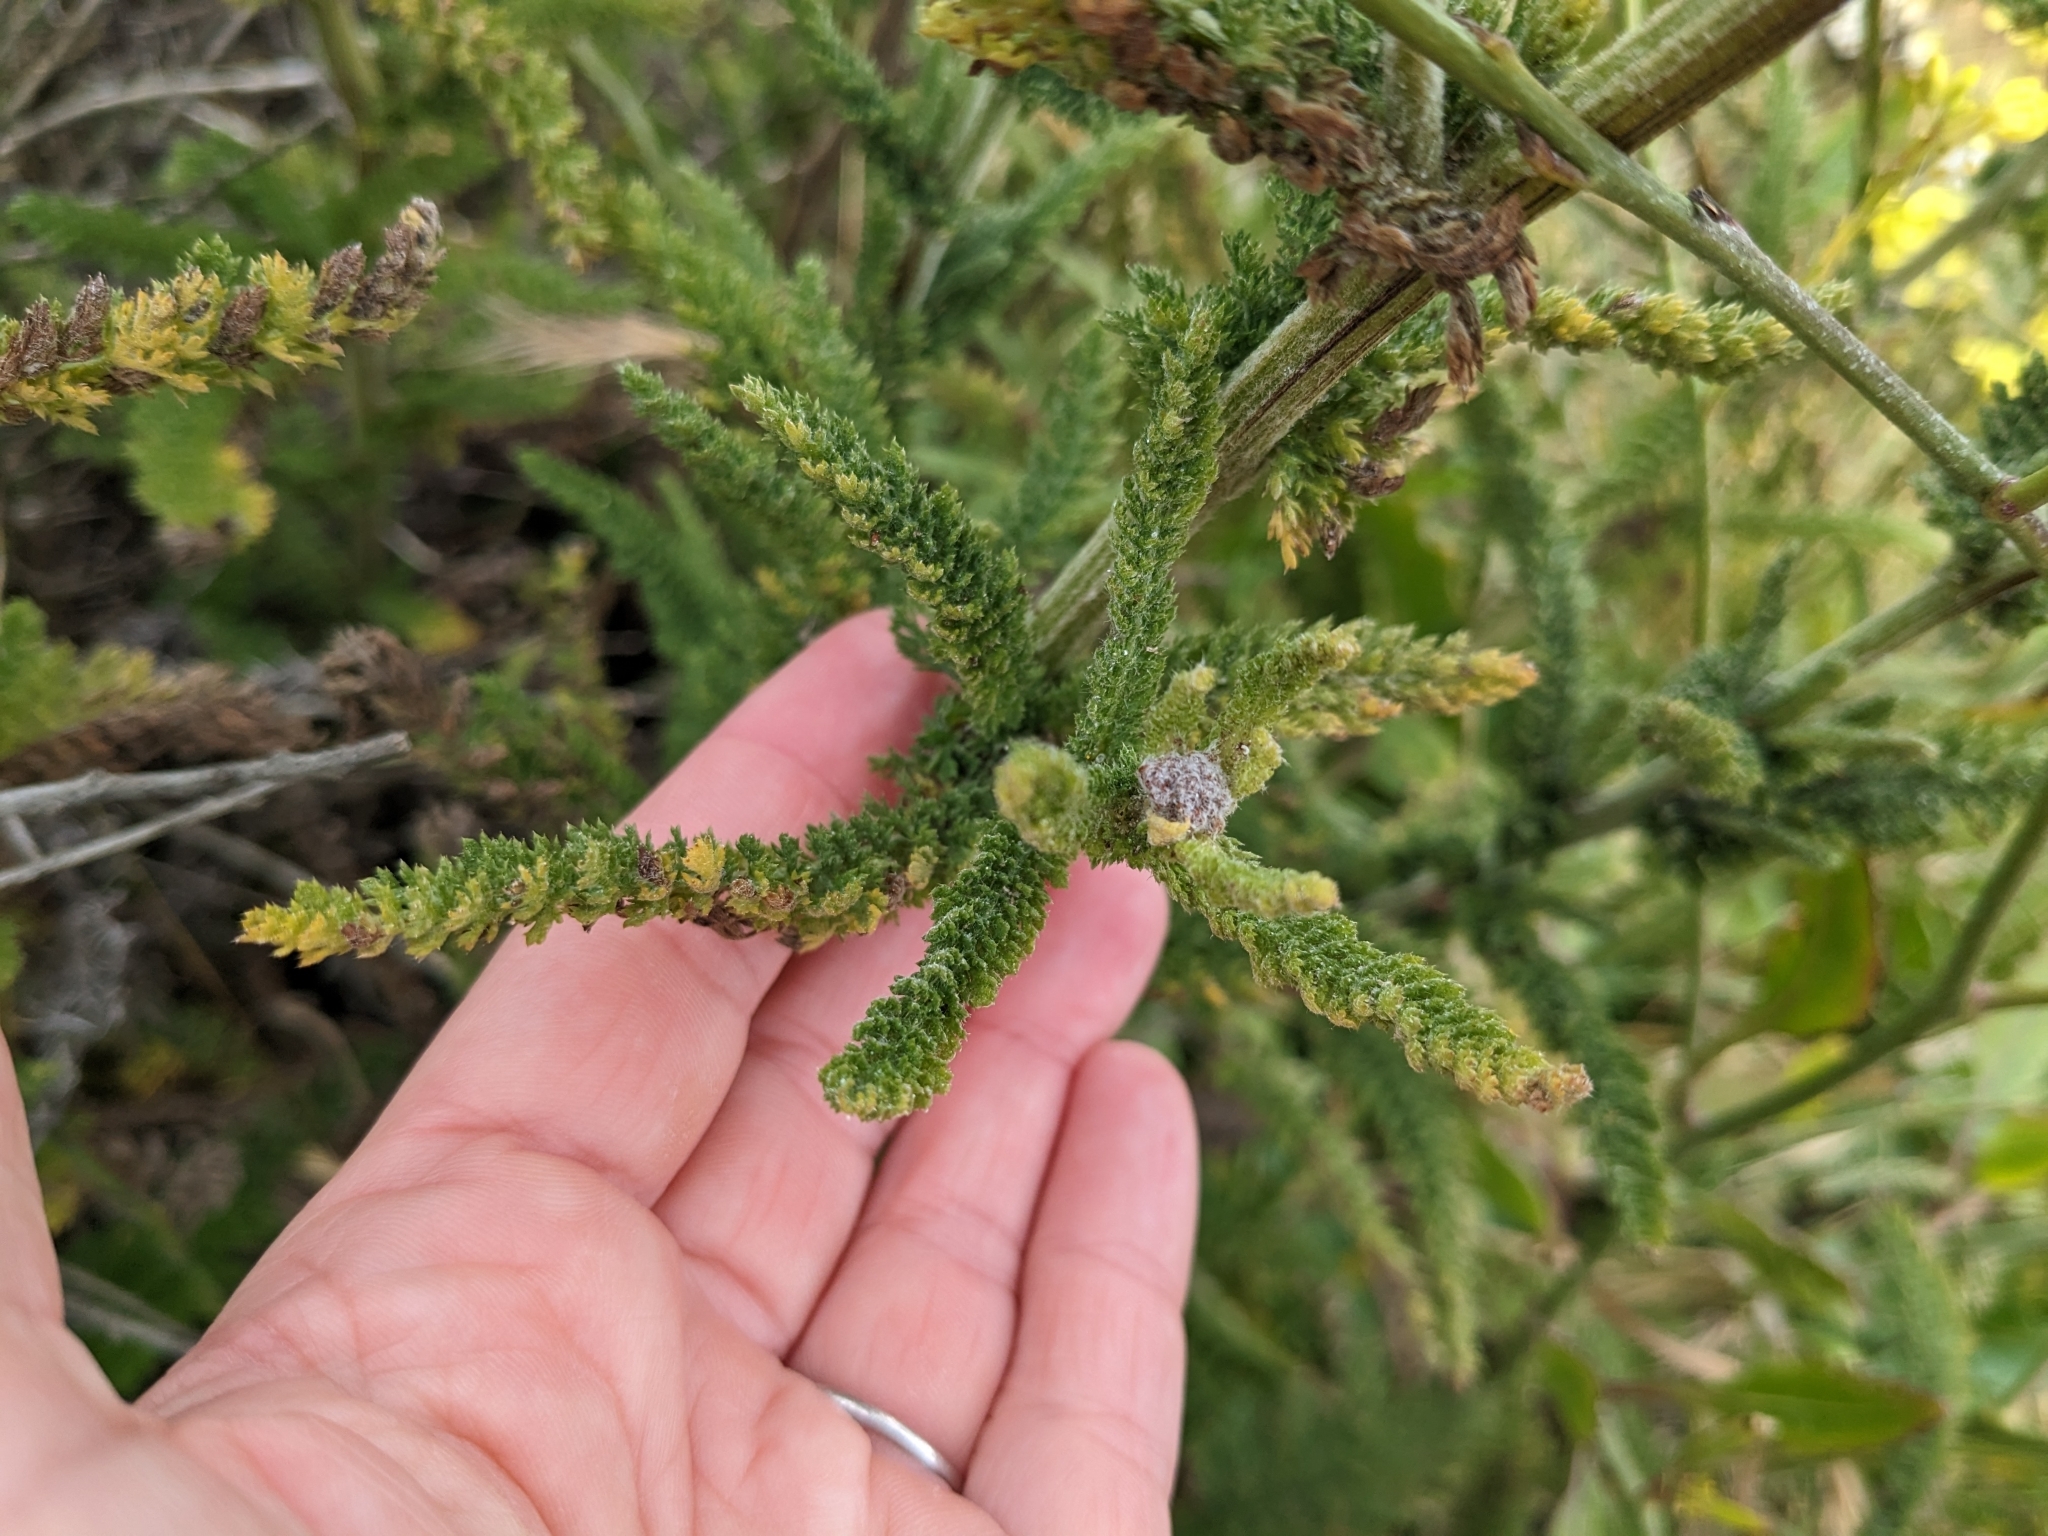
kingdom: Plantae
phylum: Tracheophyta
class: Magnoliopsida
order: Asterales
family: Asteraceae
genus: Achillea
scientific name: Achillea millefolium
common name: Yarrow
